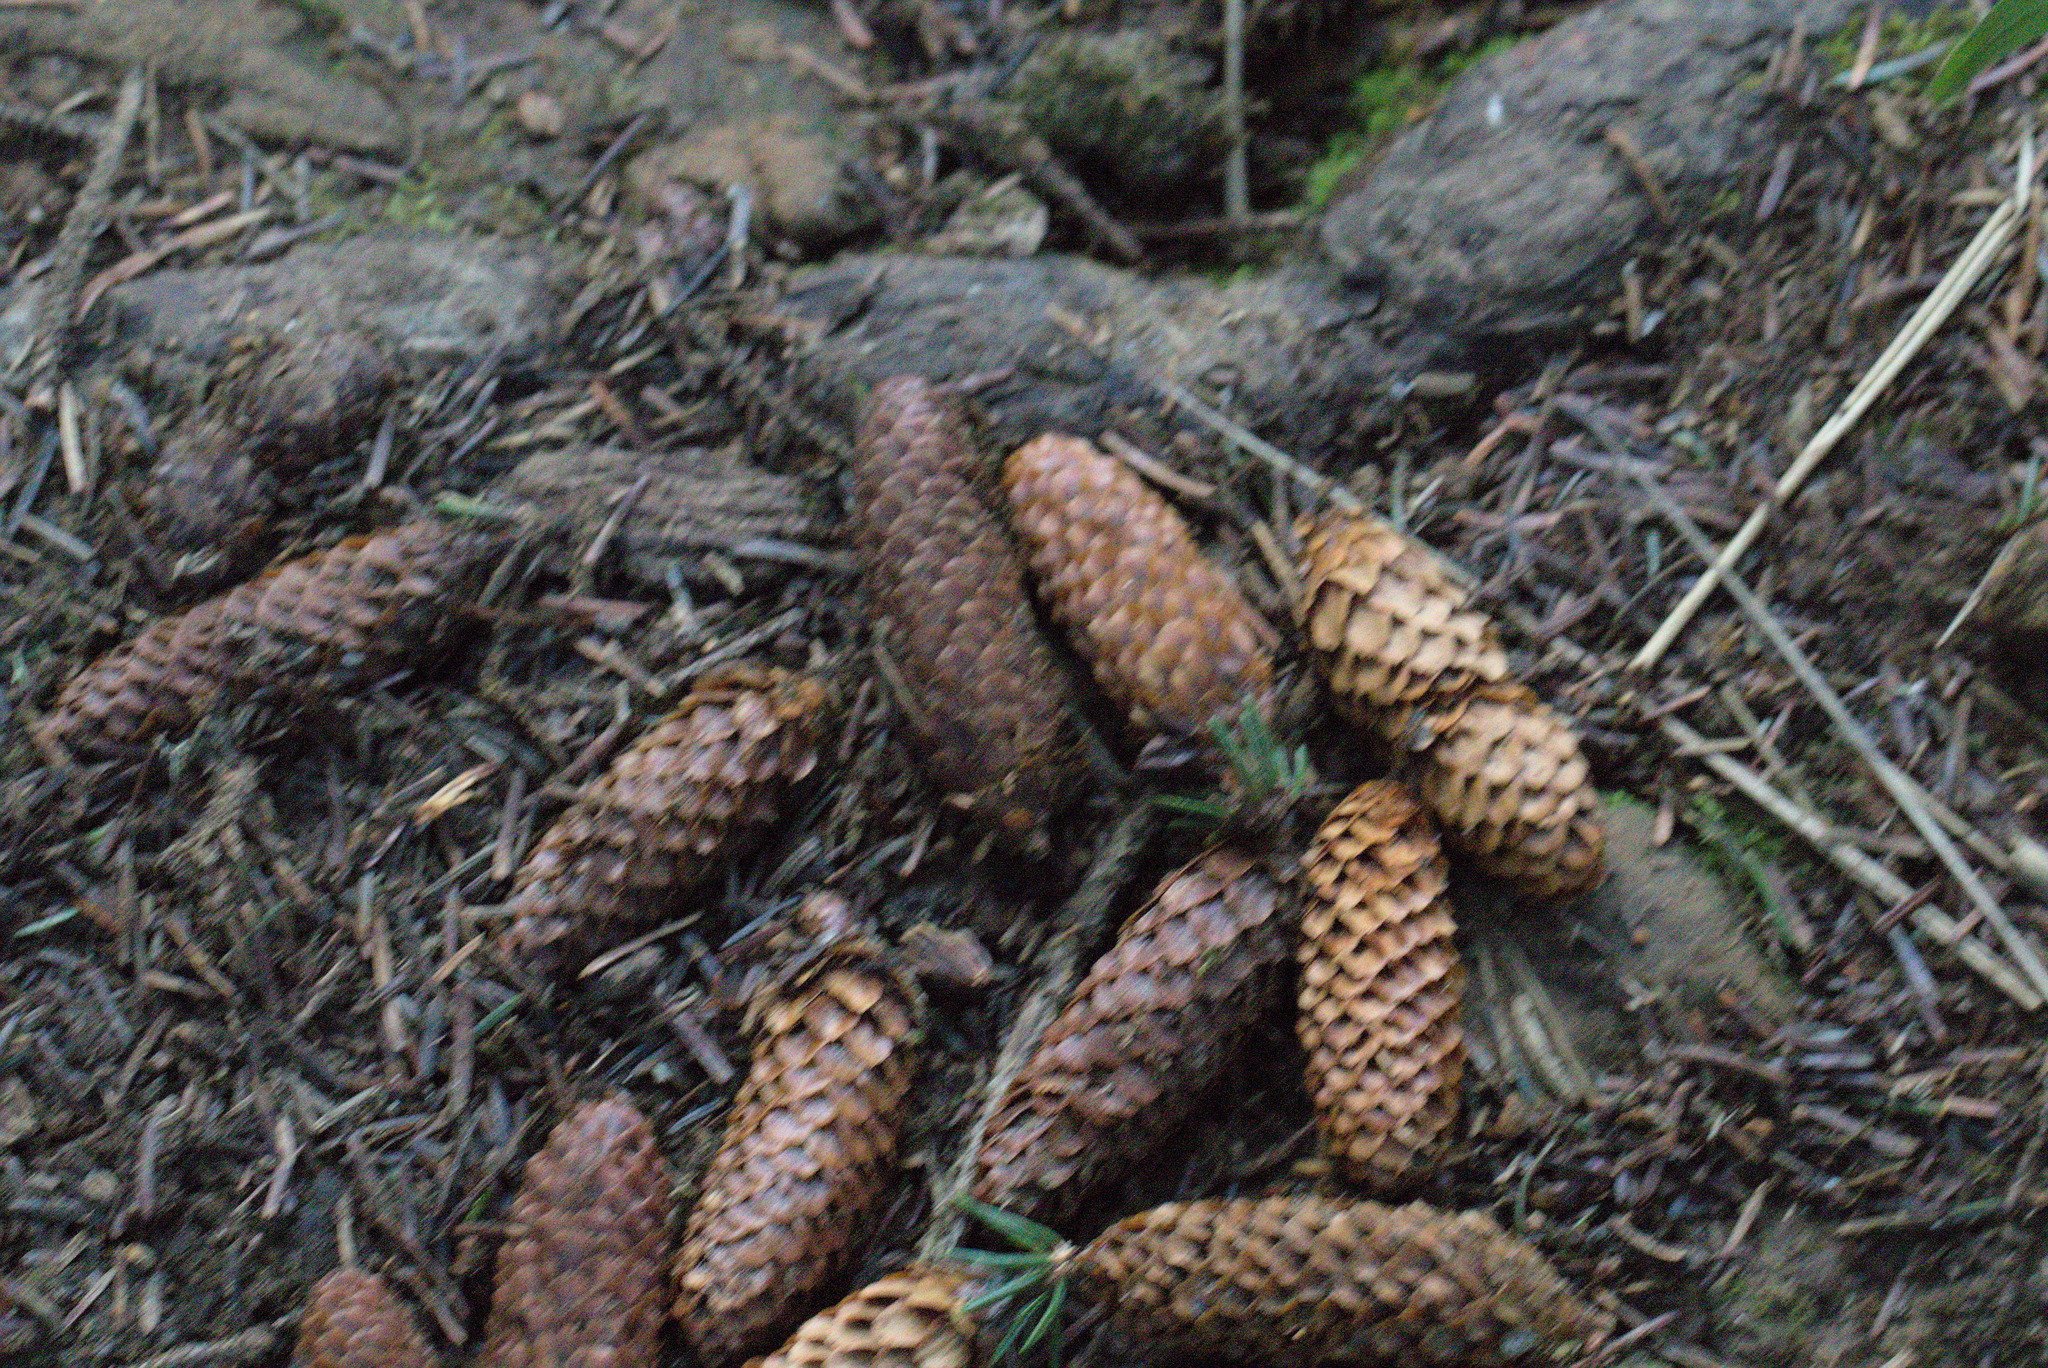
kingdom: Plantae
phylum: Tracheophyta
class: Pinopsida
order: Pinales
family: Pinaceae
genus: Picea
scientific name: Picea sitchensis
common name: Sitka spruce
